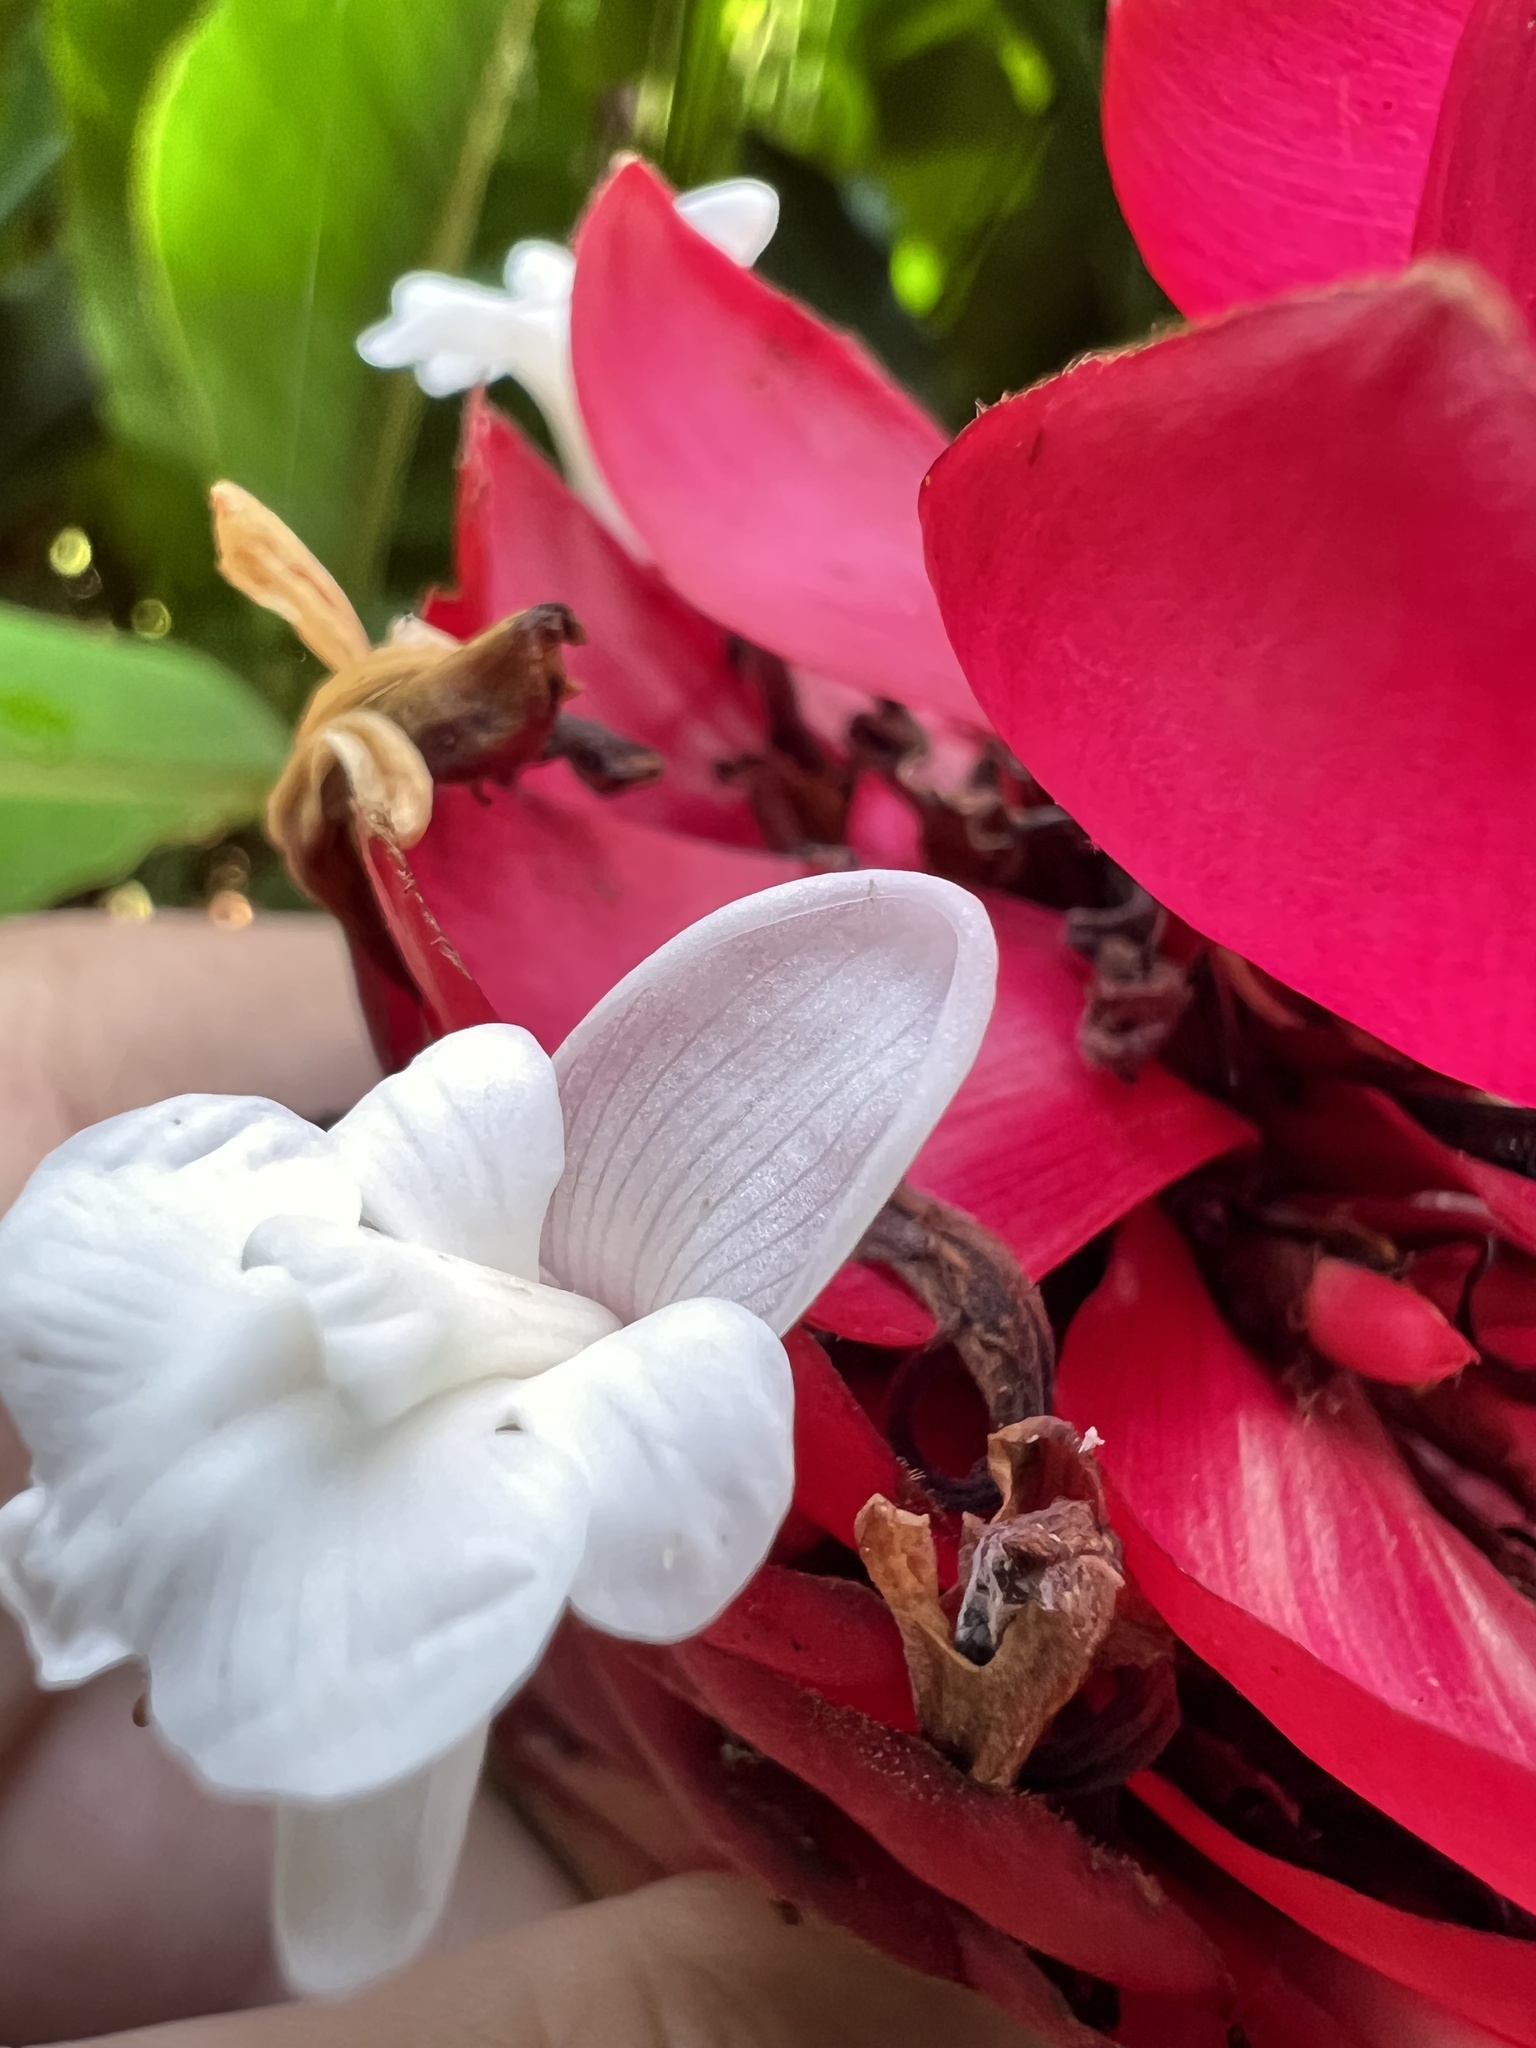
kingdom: Plantae
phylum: Tracheophyta
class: Liliopsida
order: Zingiberales
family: Zingiberaceae
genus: Alpinia
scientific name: Alpinia purpurata
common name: Red ginger
